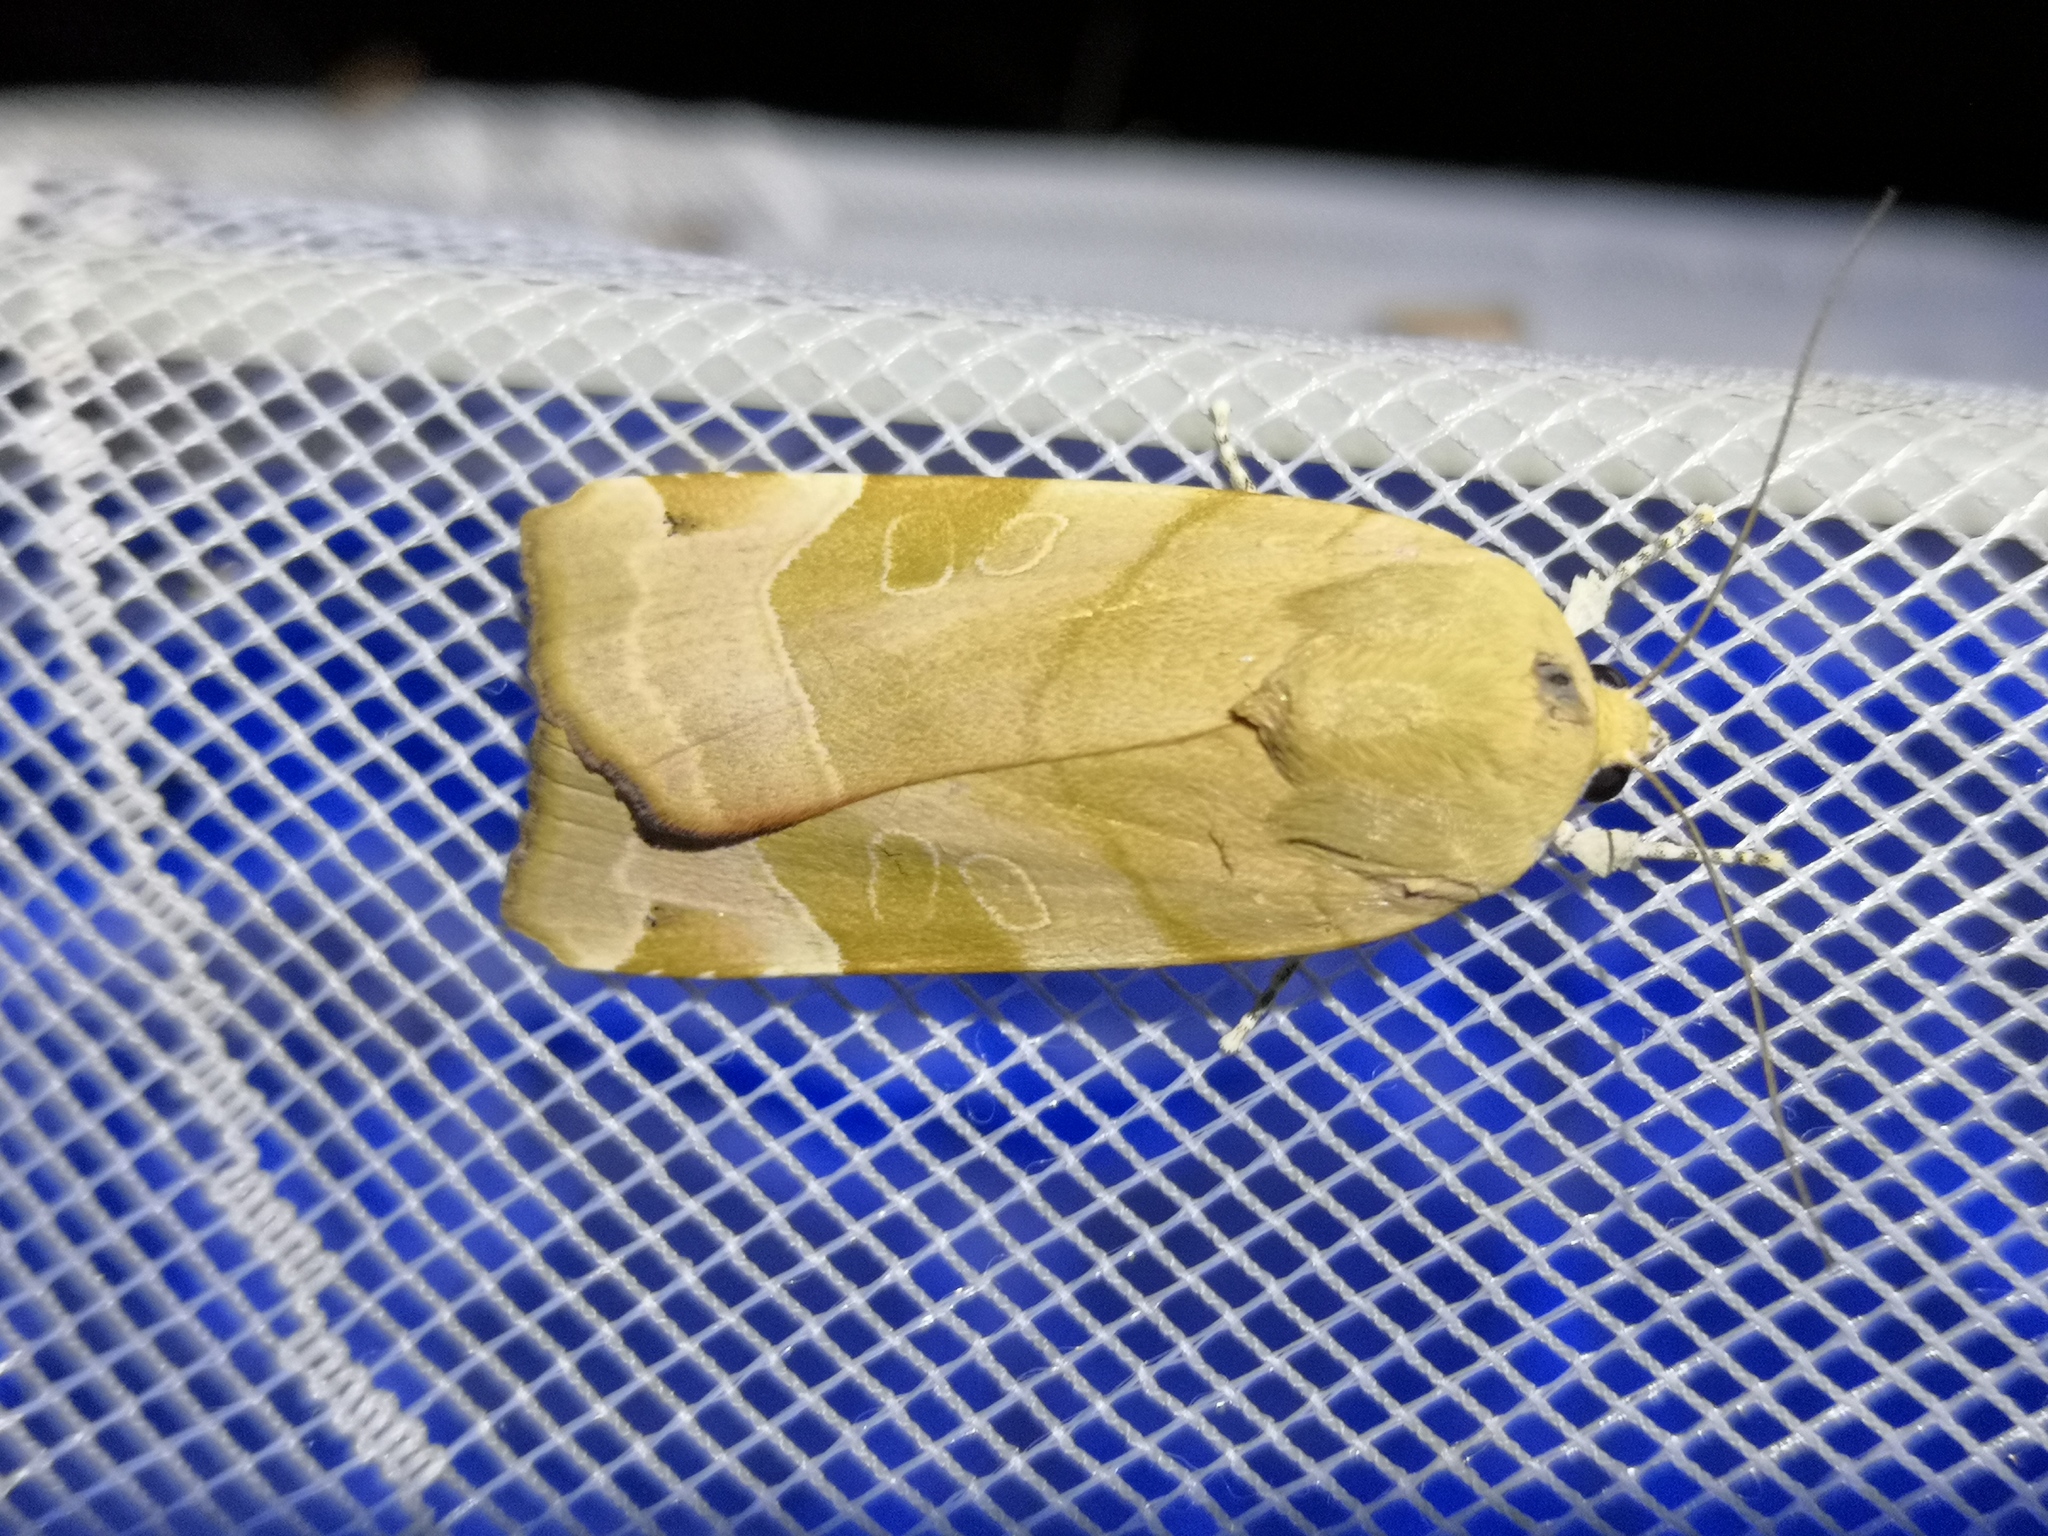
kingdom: Animalia
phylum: Arthropoda
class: Insecta
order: Lepidoptera
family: Noctuidae
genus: Noctua
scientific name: Noctua fimbriata
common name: Broad-bordered yellow underwing
